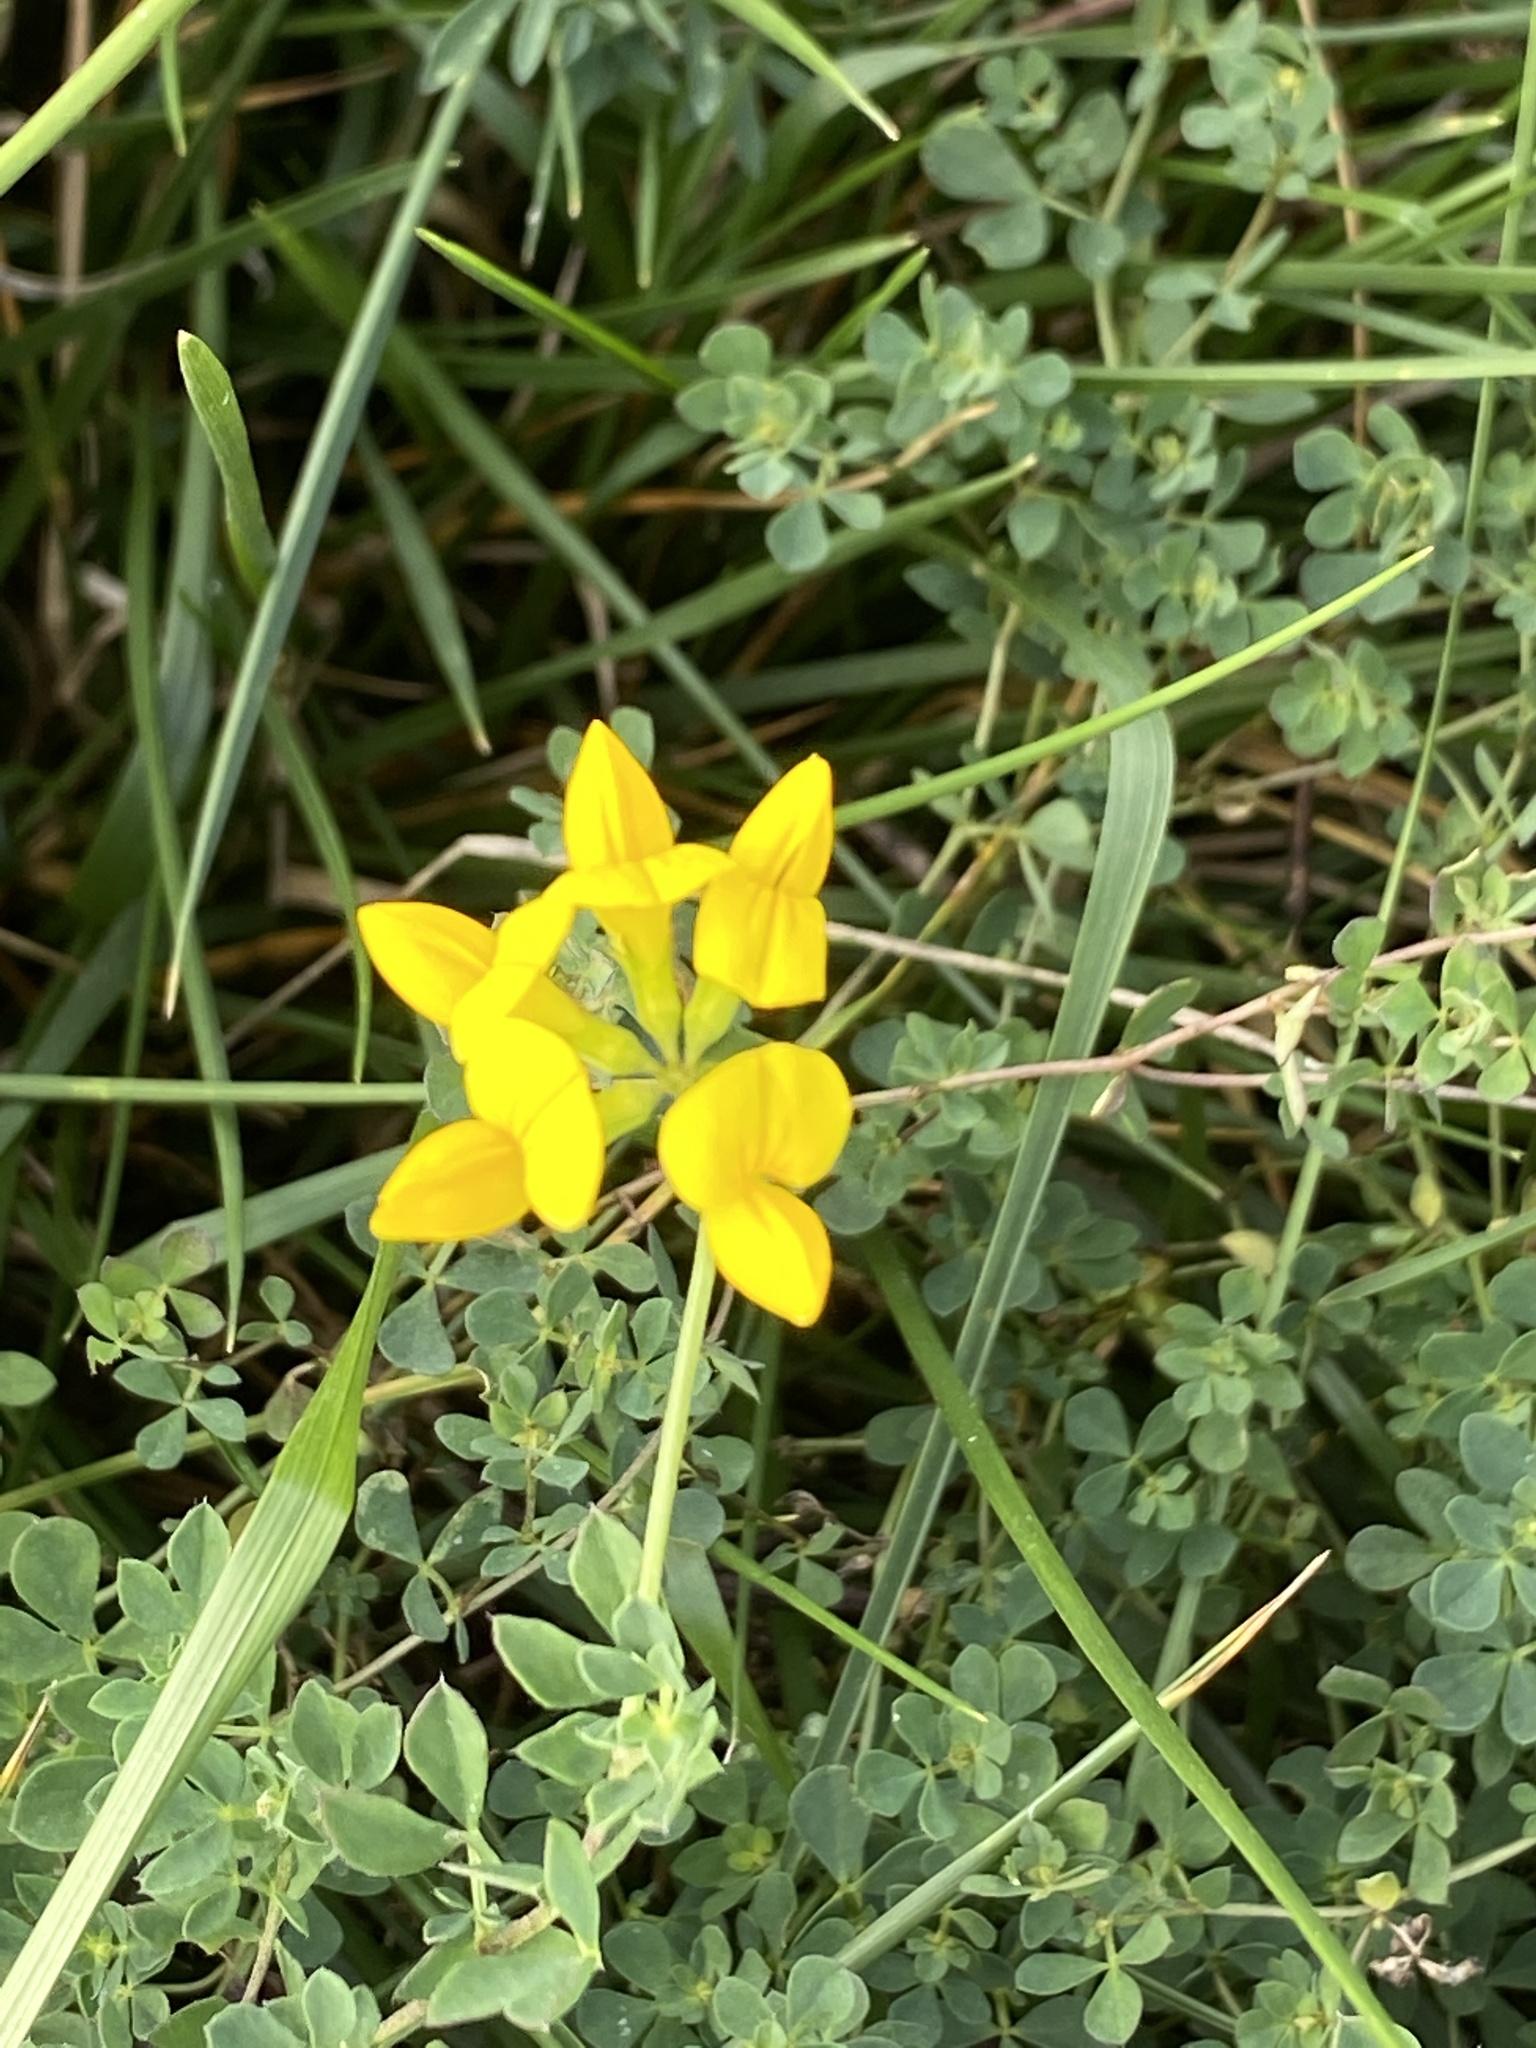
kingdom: Plantae
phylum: Tracheophyta
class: Magnoliopsida
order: Fabales
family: Fabaceae
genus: Lotus
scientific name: Lotus corniculatus
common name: Common bird's-foot-trefoil
